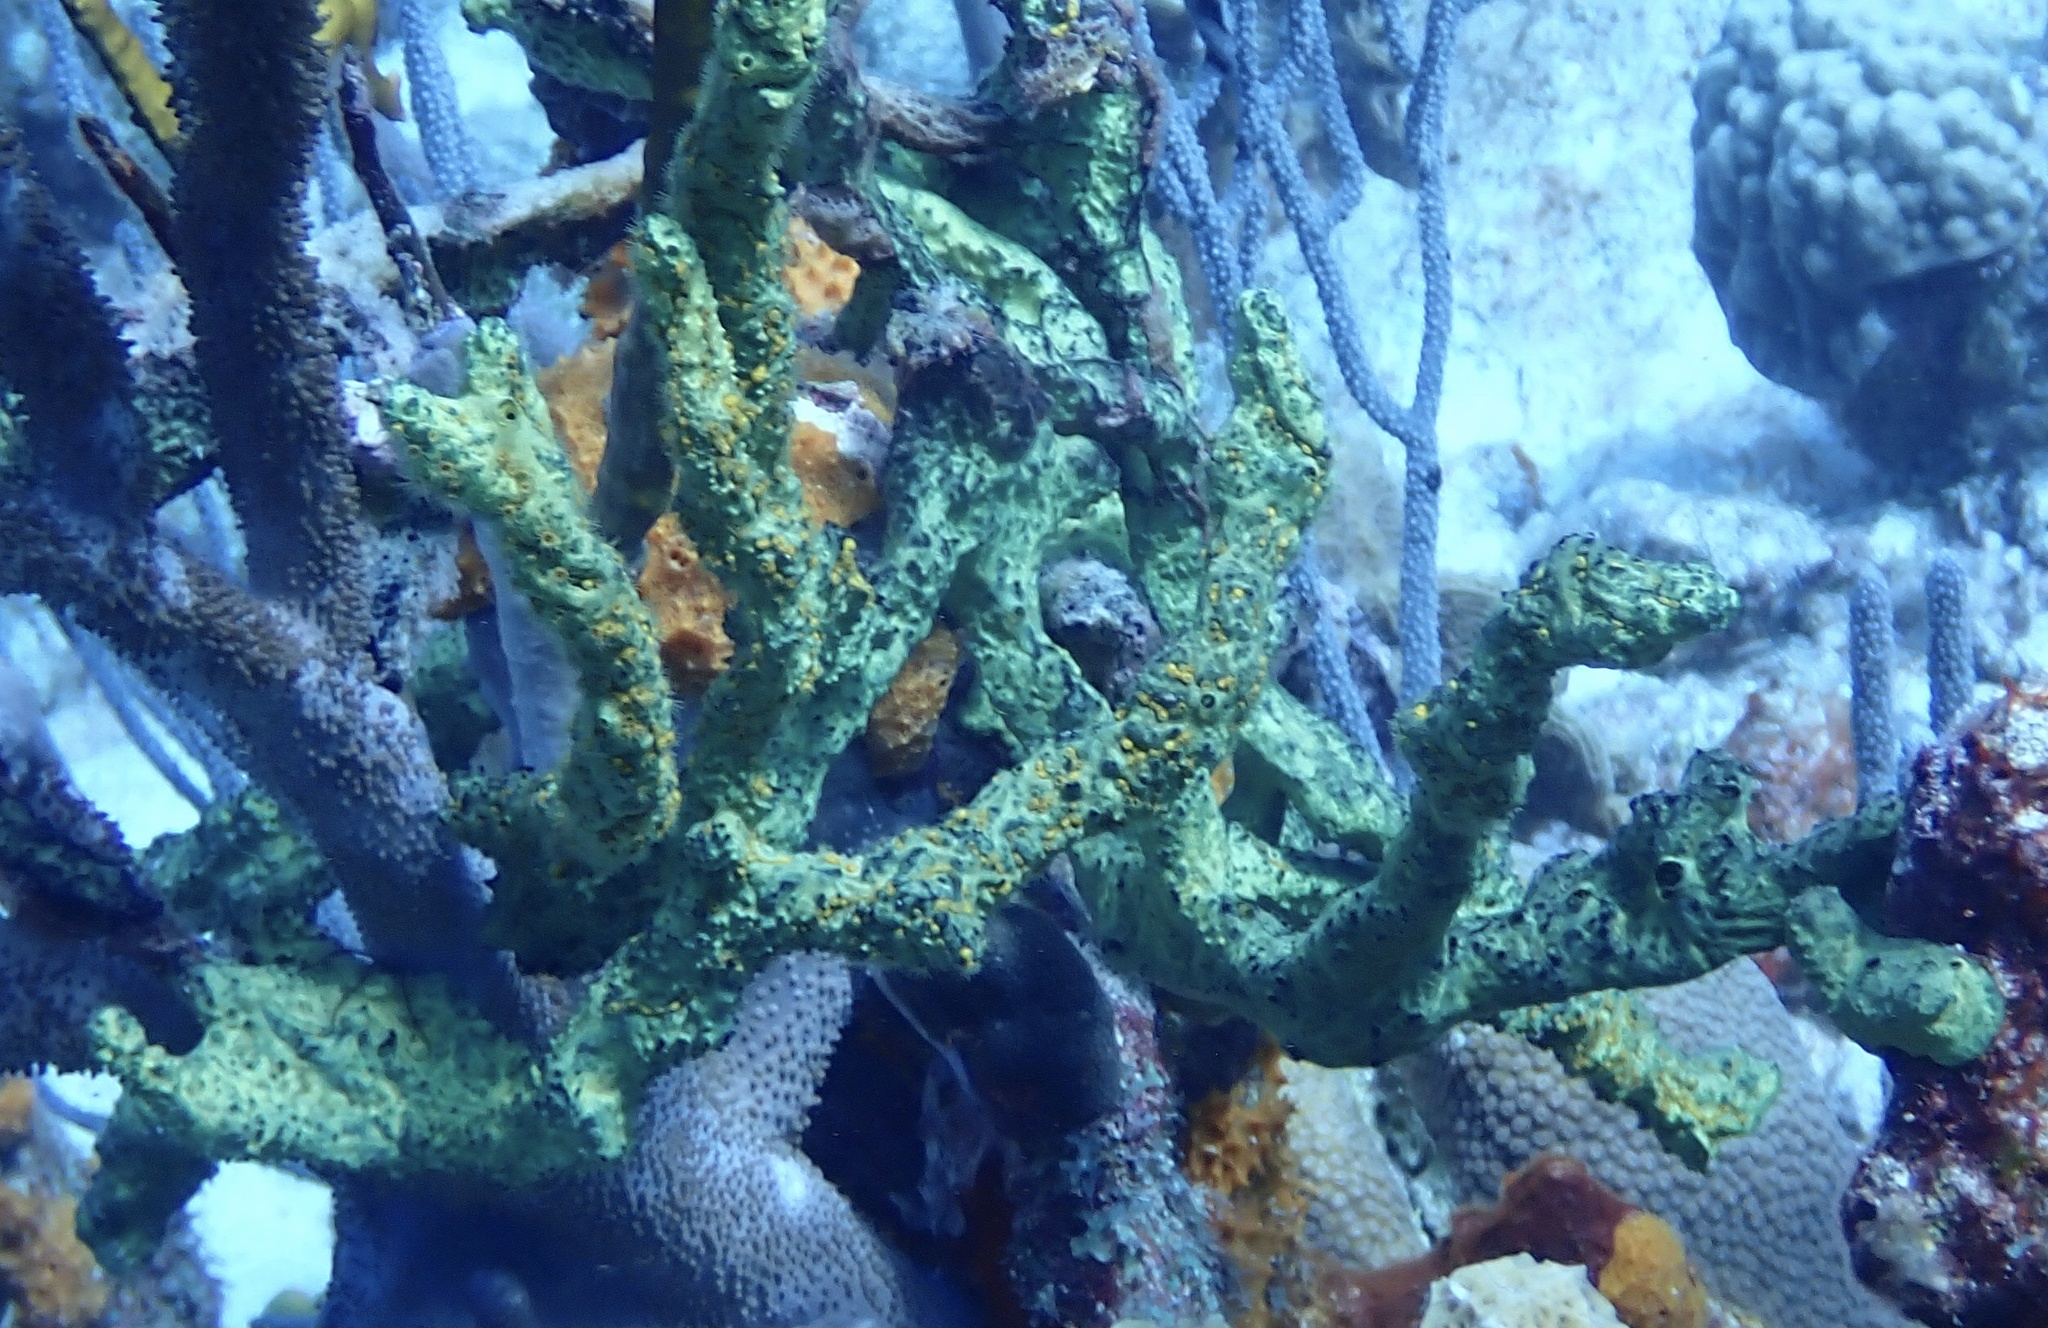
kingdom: Animalia
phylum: Porifera
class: Demospongiae
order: Poecilosclerida
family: Iotrochotidae
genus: Iotrochota
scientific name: Iotrochota birotulata
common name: Purple bleeding sponge
